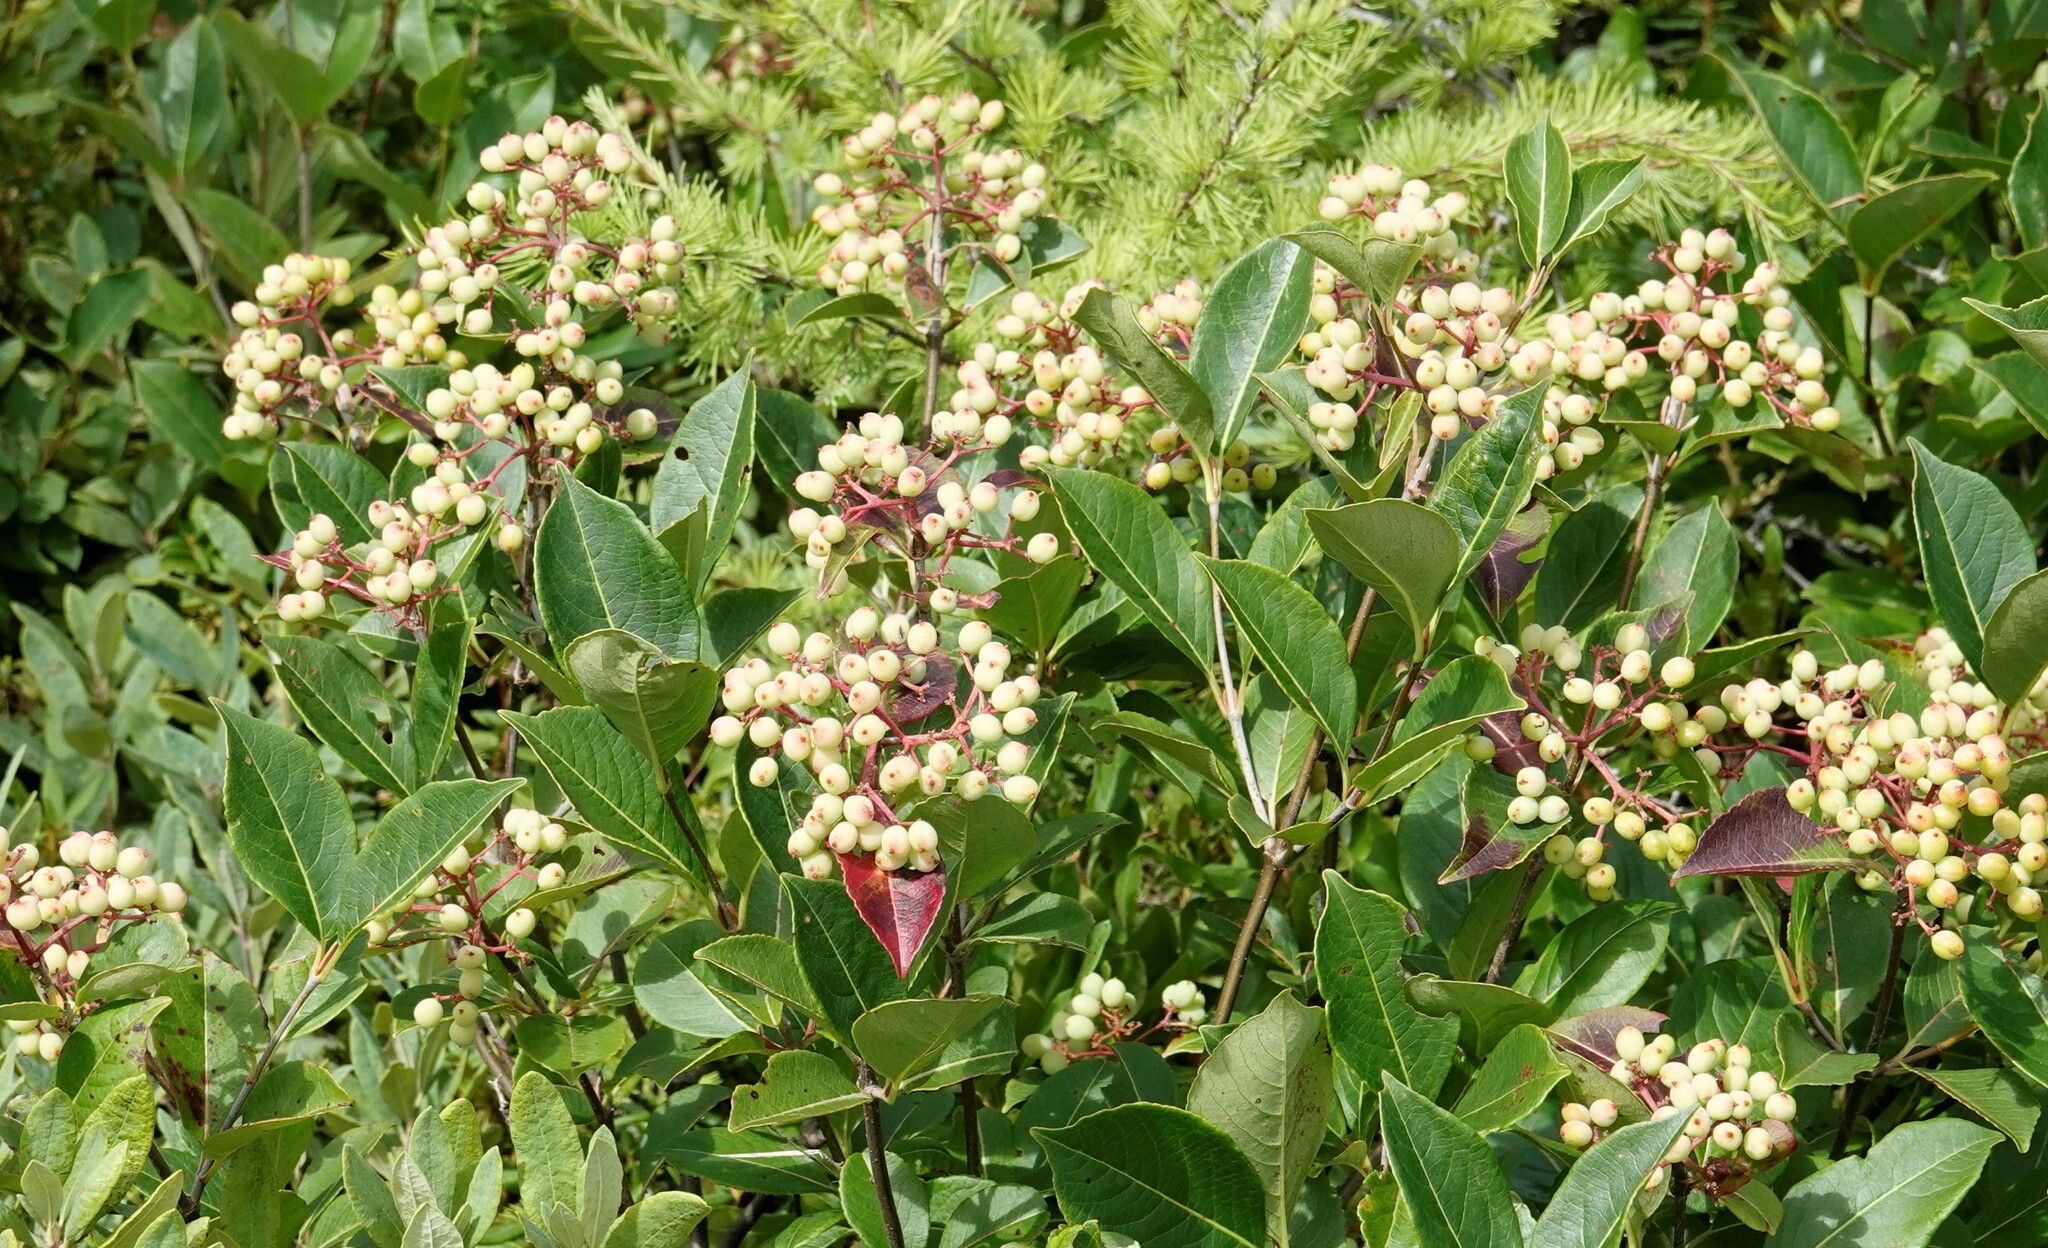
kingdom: Plantae
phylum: Tracheophyta
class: Magnoliopsida
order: Dipsacales
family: Viburnaceae
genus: Viburnum
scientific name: Viburnum cassinoides
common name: Swamp haw
